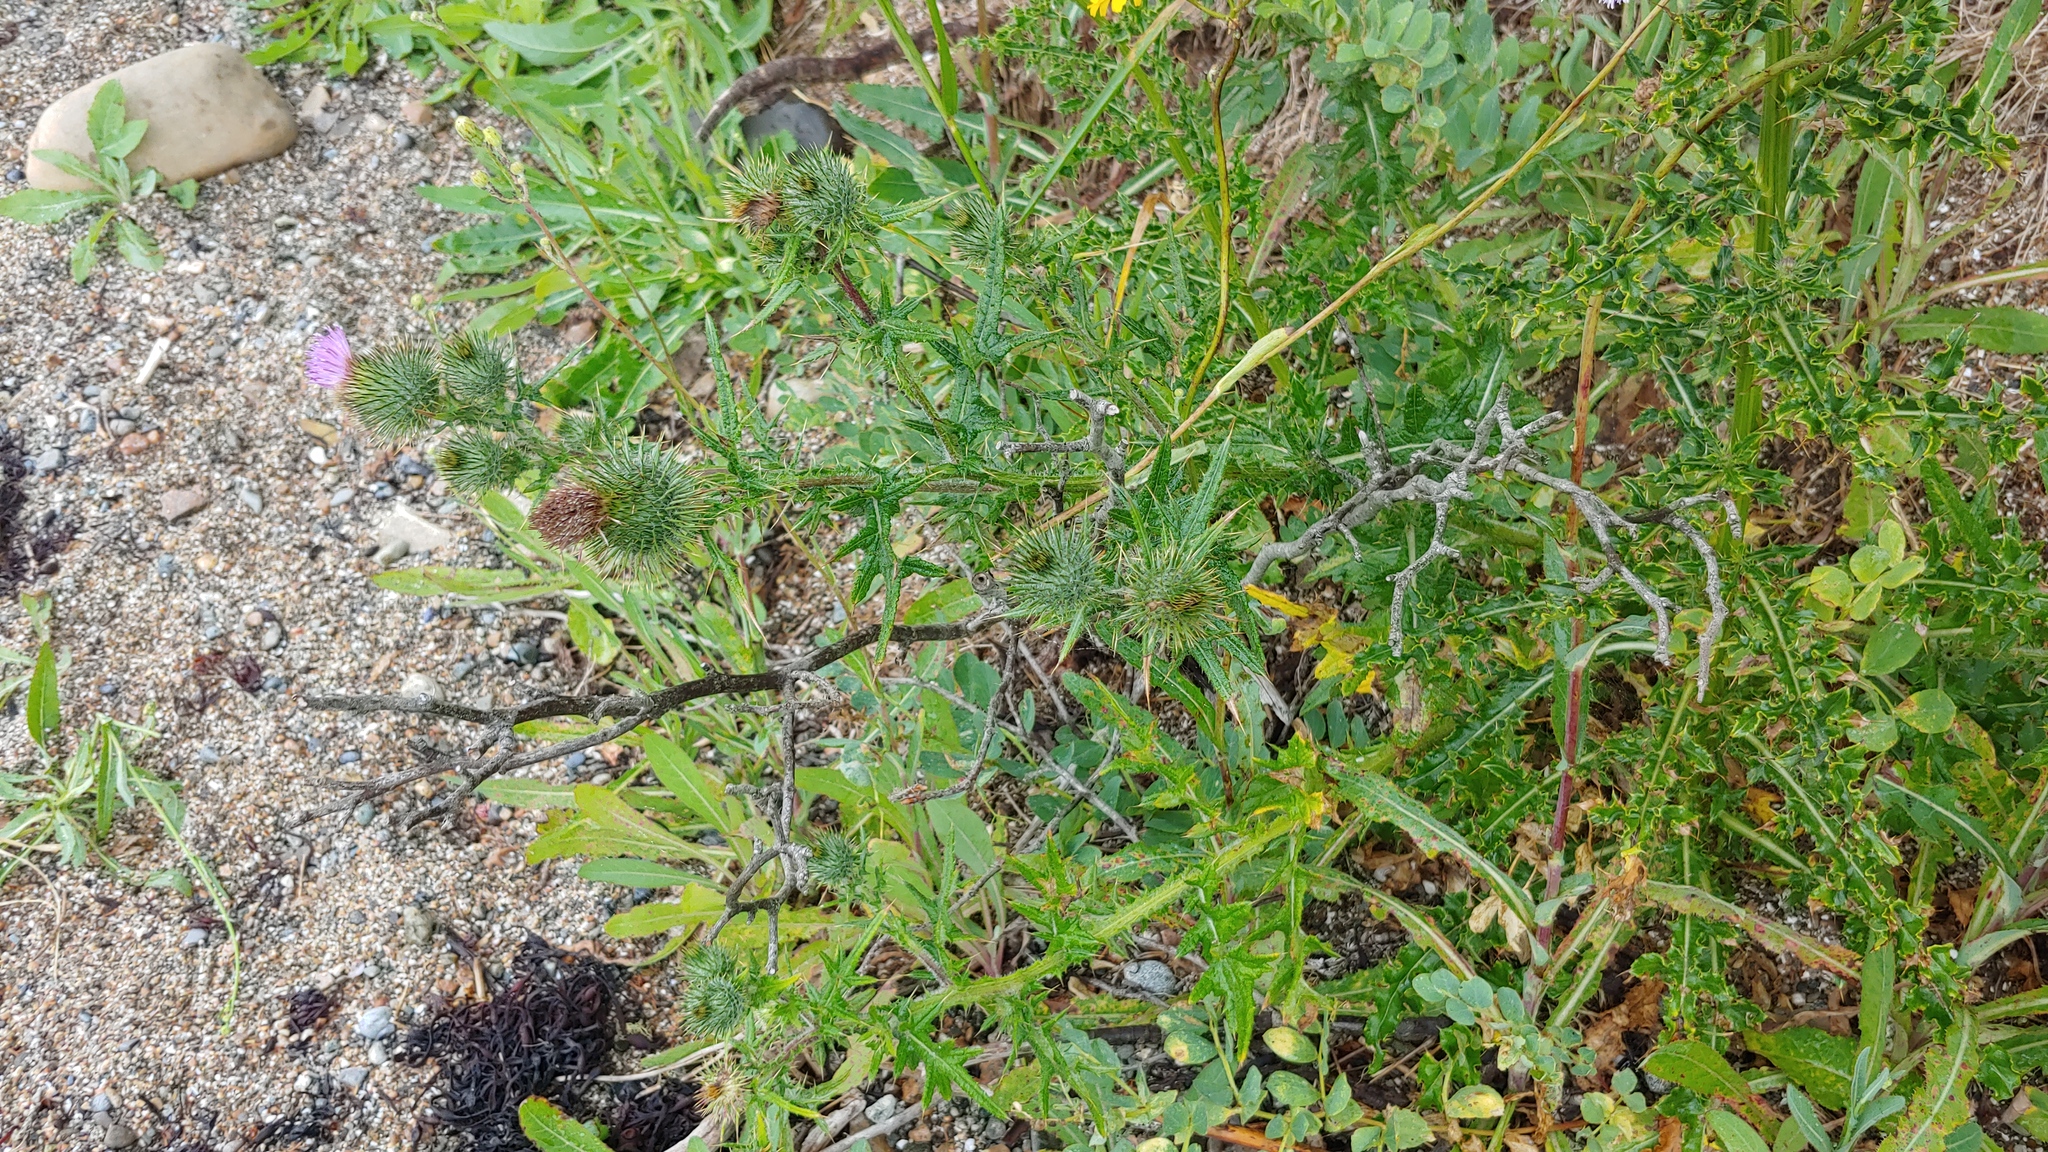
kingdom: Plantae
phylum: Tracheophyta
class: Magnoliopsida
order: Asterales
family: Asteraceae
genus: Cirsium
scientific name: Cirsium vulgare
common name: Bull thistle
